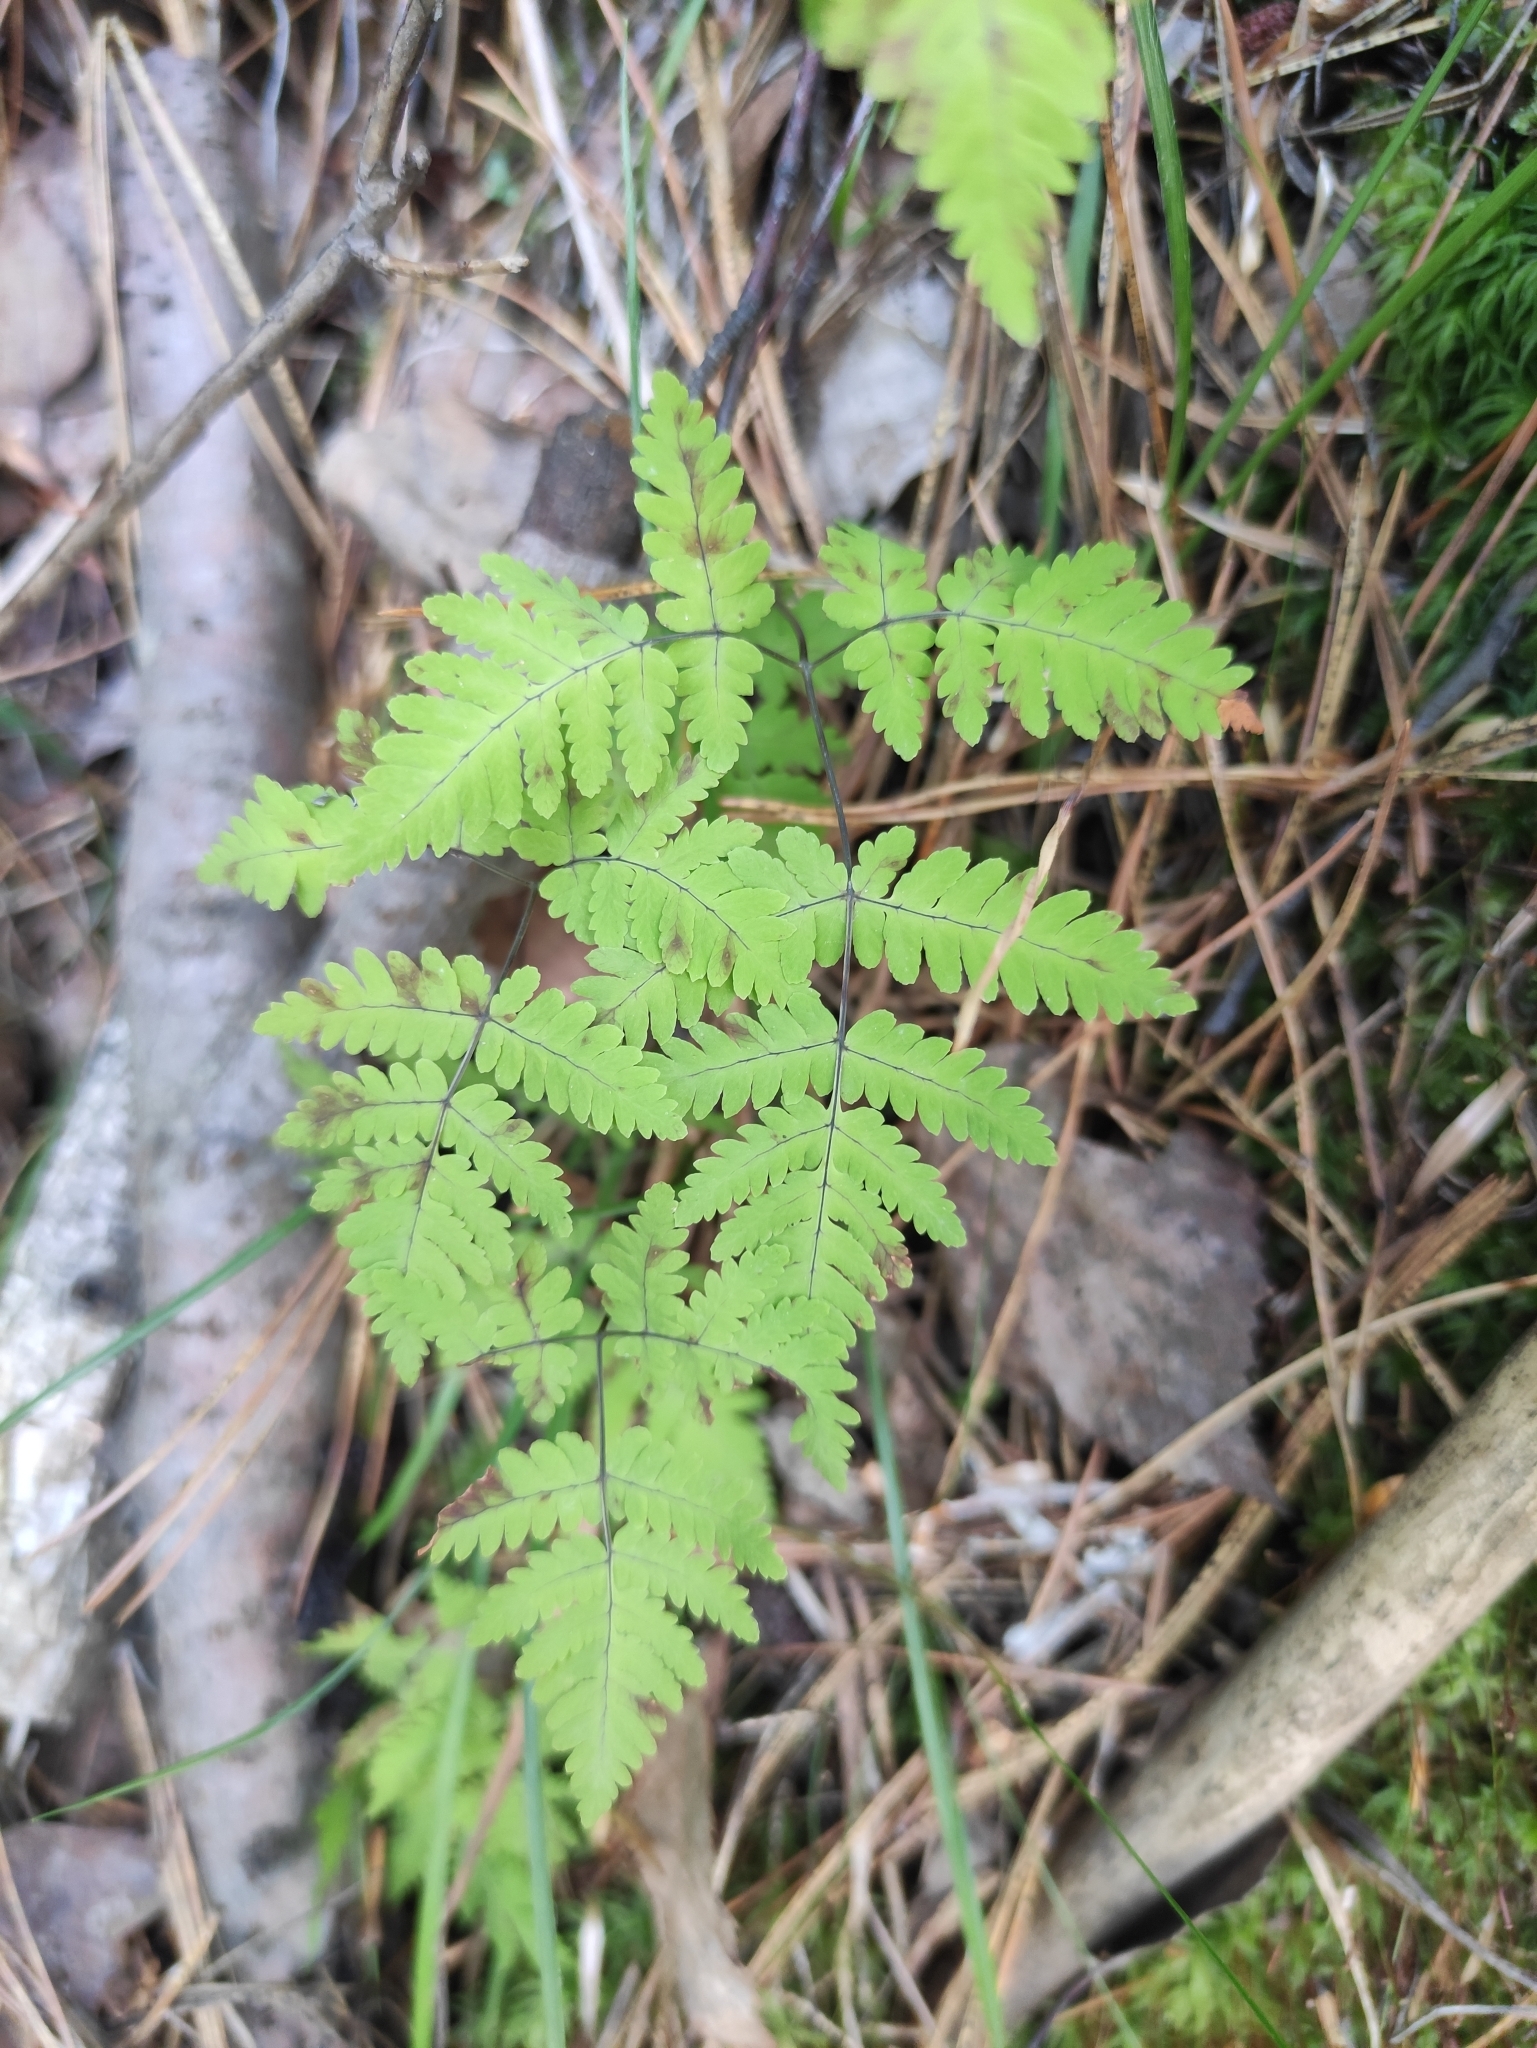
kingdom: Plantae
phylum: Tracheophyta
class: Polypodiopsida
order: Polypodiales
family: Cystopteridaceae
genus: Gymnocarpium
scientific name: Gymnocarpium dryopteris
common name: Oak fern
